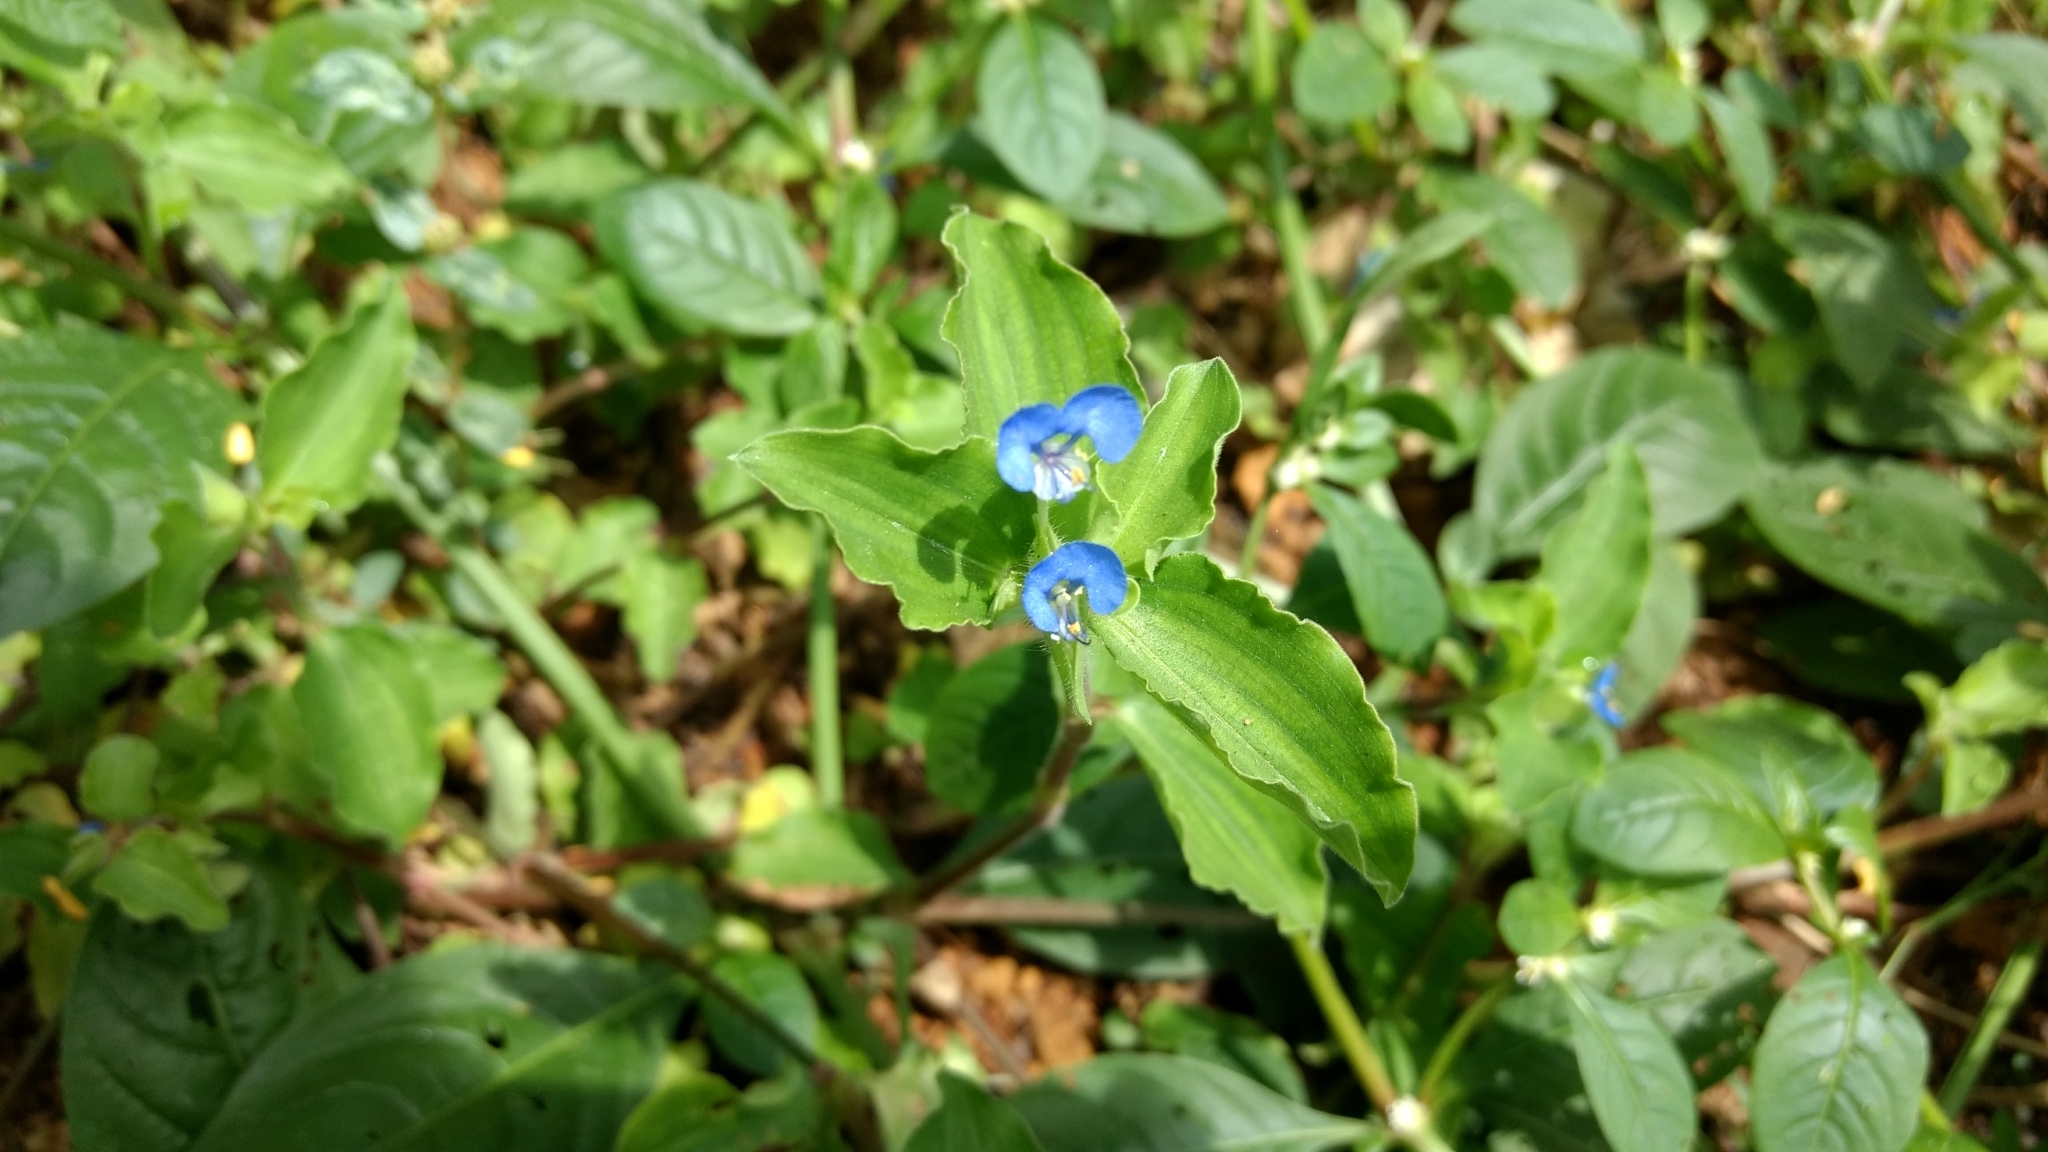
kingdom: Plantae
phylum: Tracheophyta
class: Liliopsida
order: Commelinales
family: Commelinaceae
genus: Commelina
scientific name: Commelina benghalensis
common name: Jio
